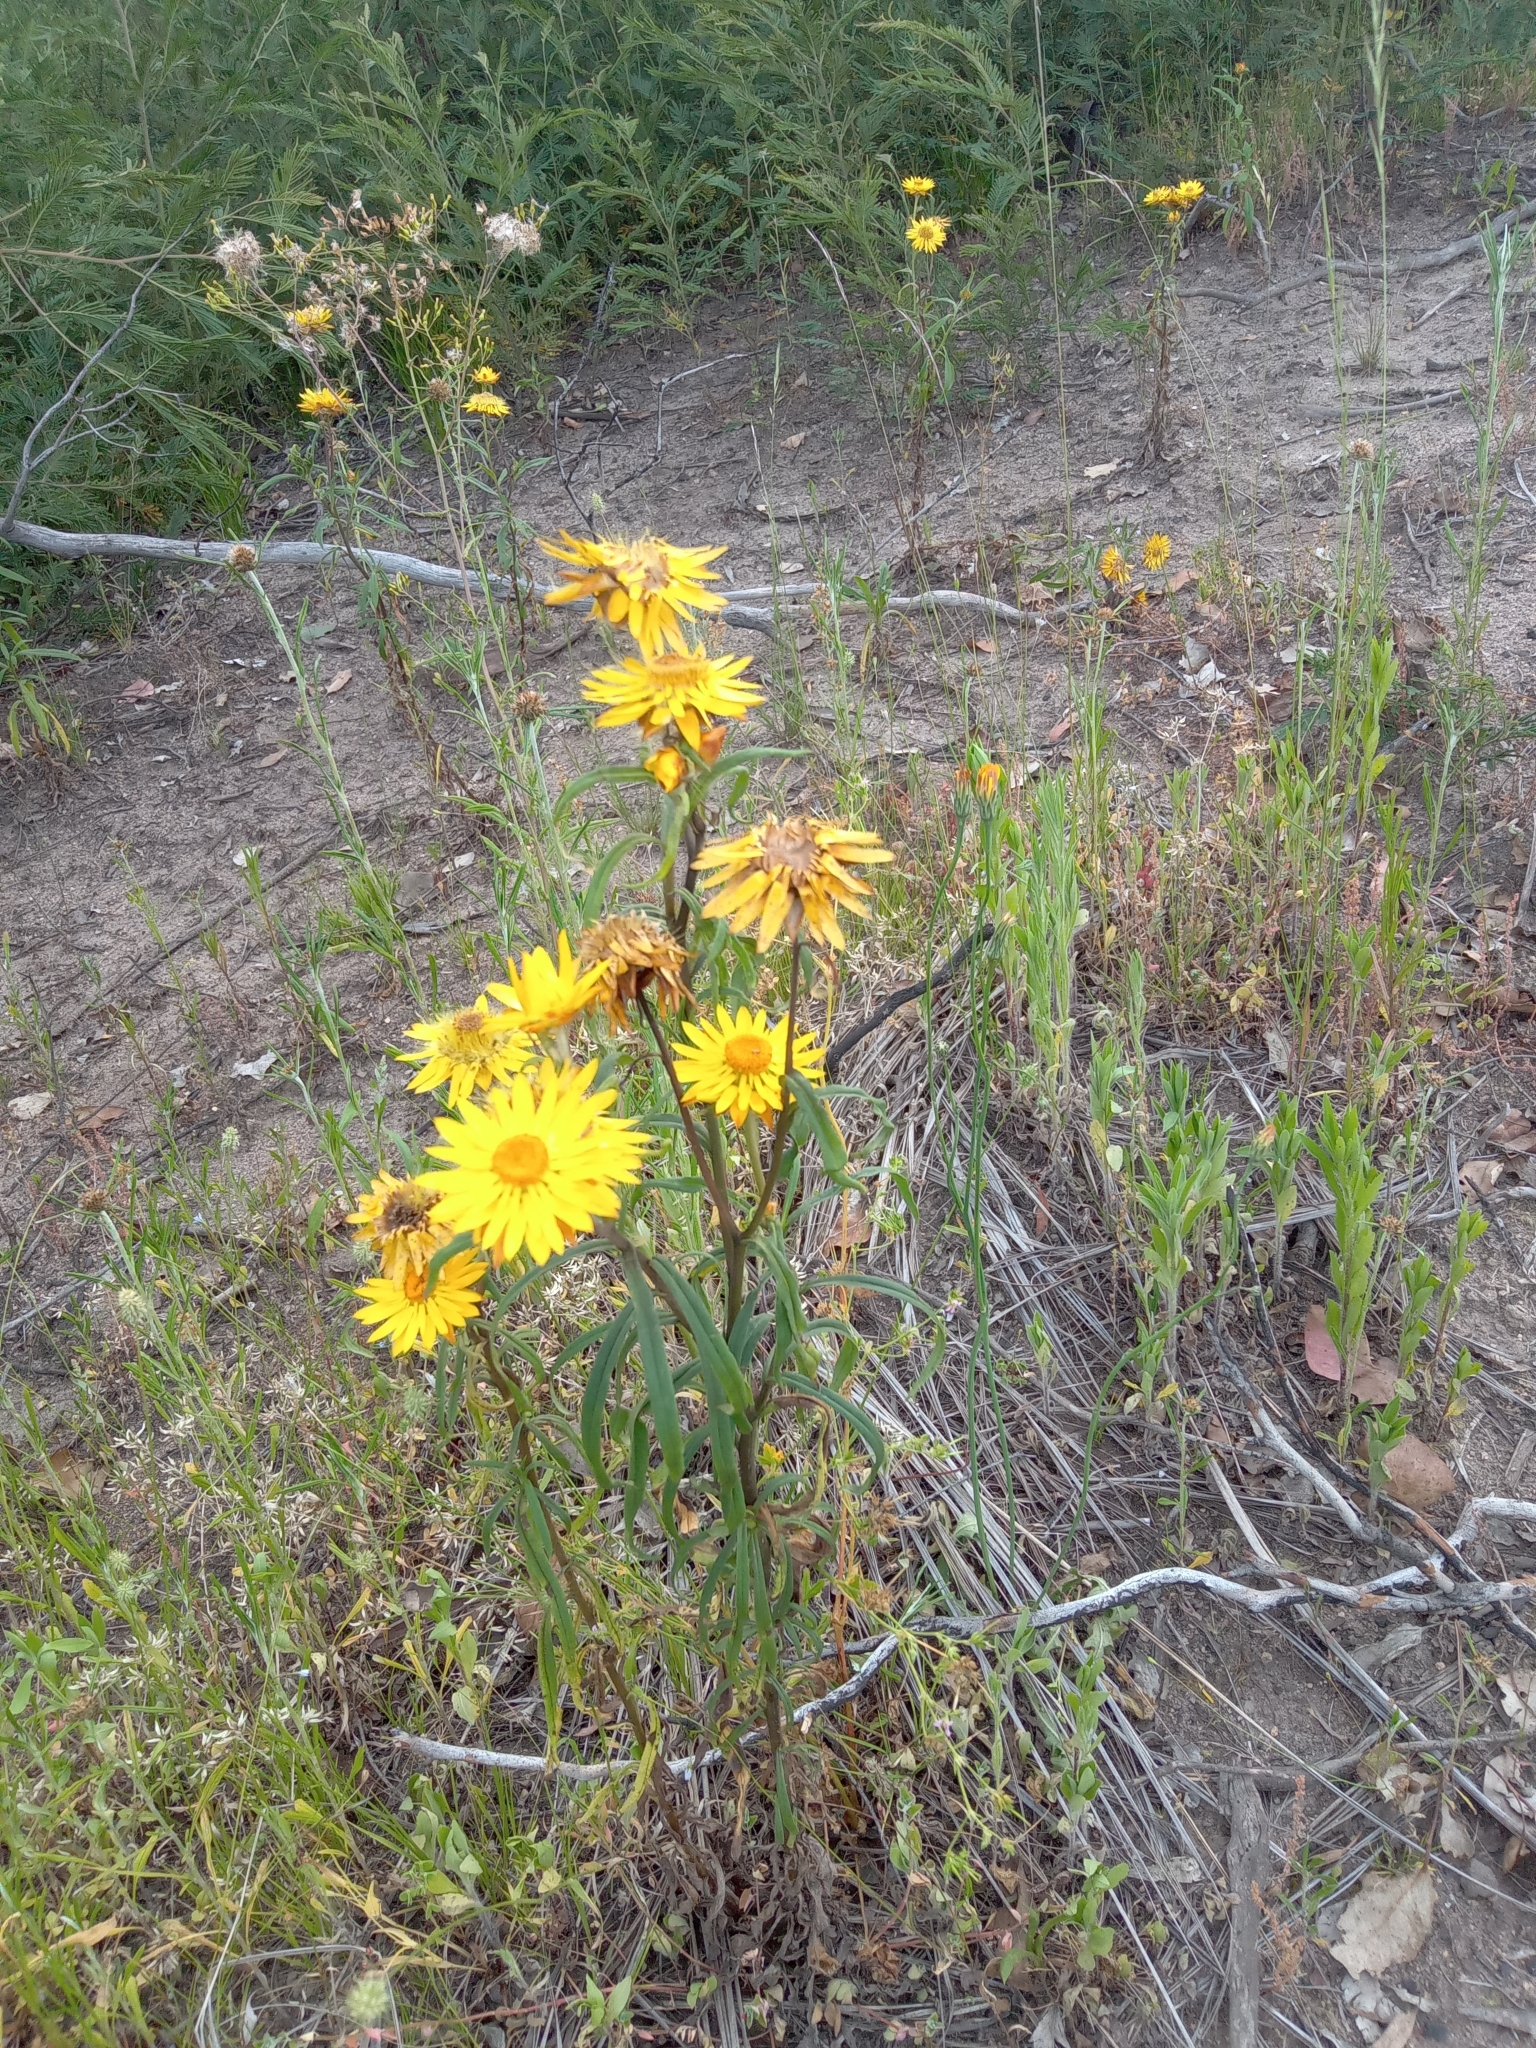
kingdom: Plantae
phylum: Tracheophyta
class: Magnoliopsida
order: Asterales
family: Asteraceae
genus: Xerochrysum
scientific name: Xerochrysum bracteatum
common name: Bracted strawflower
